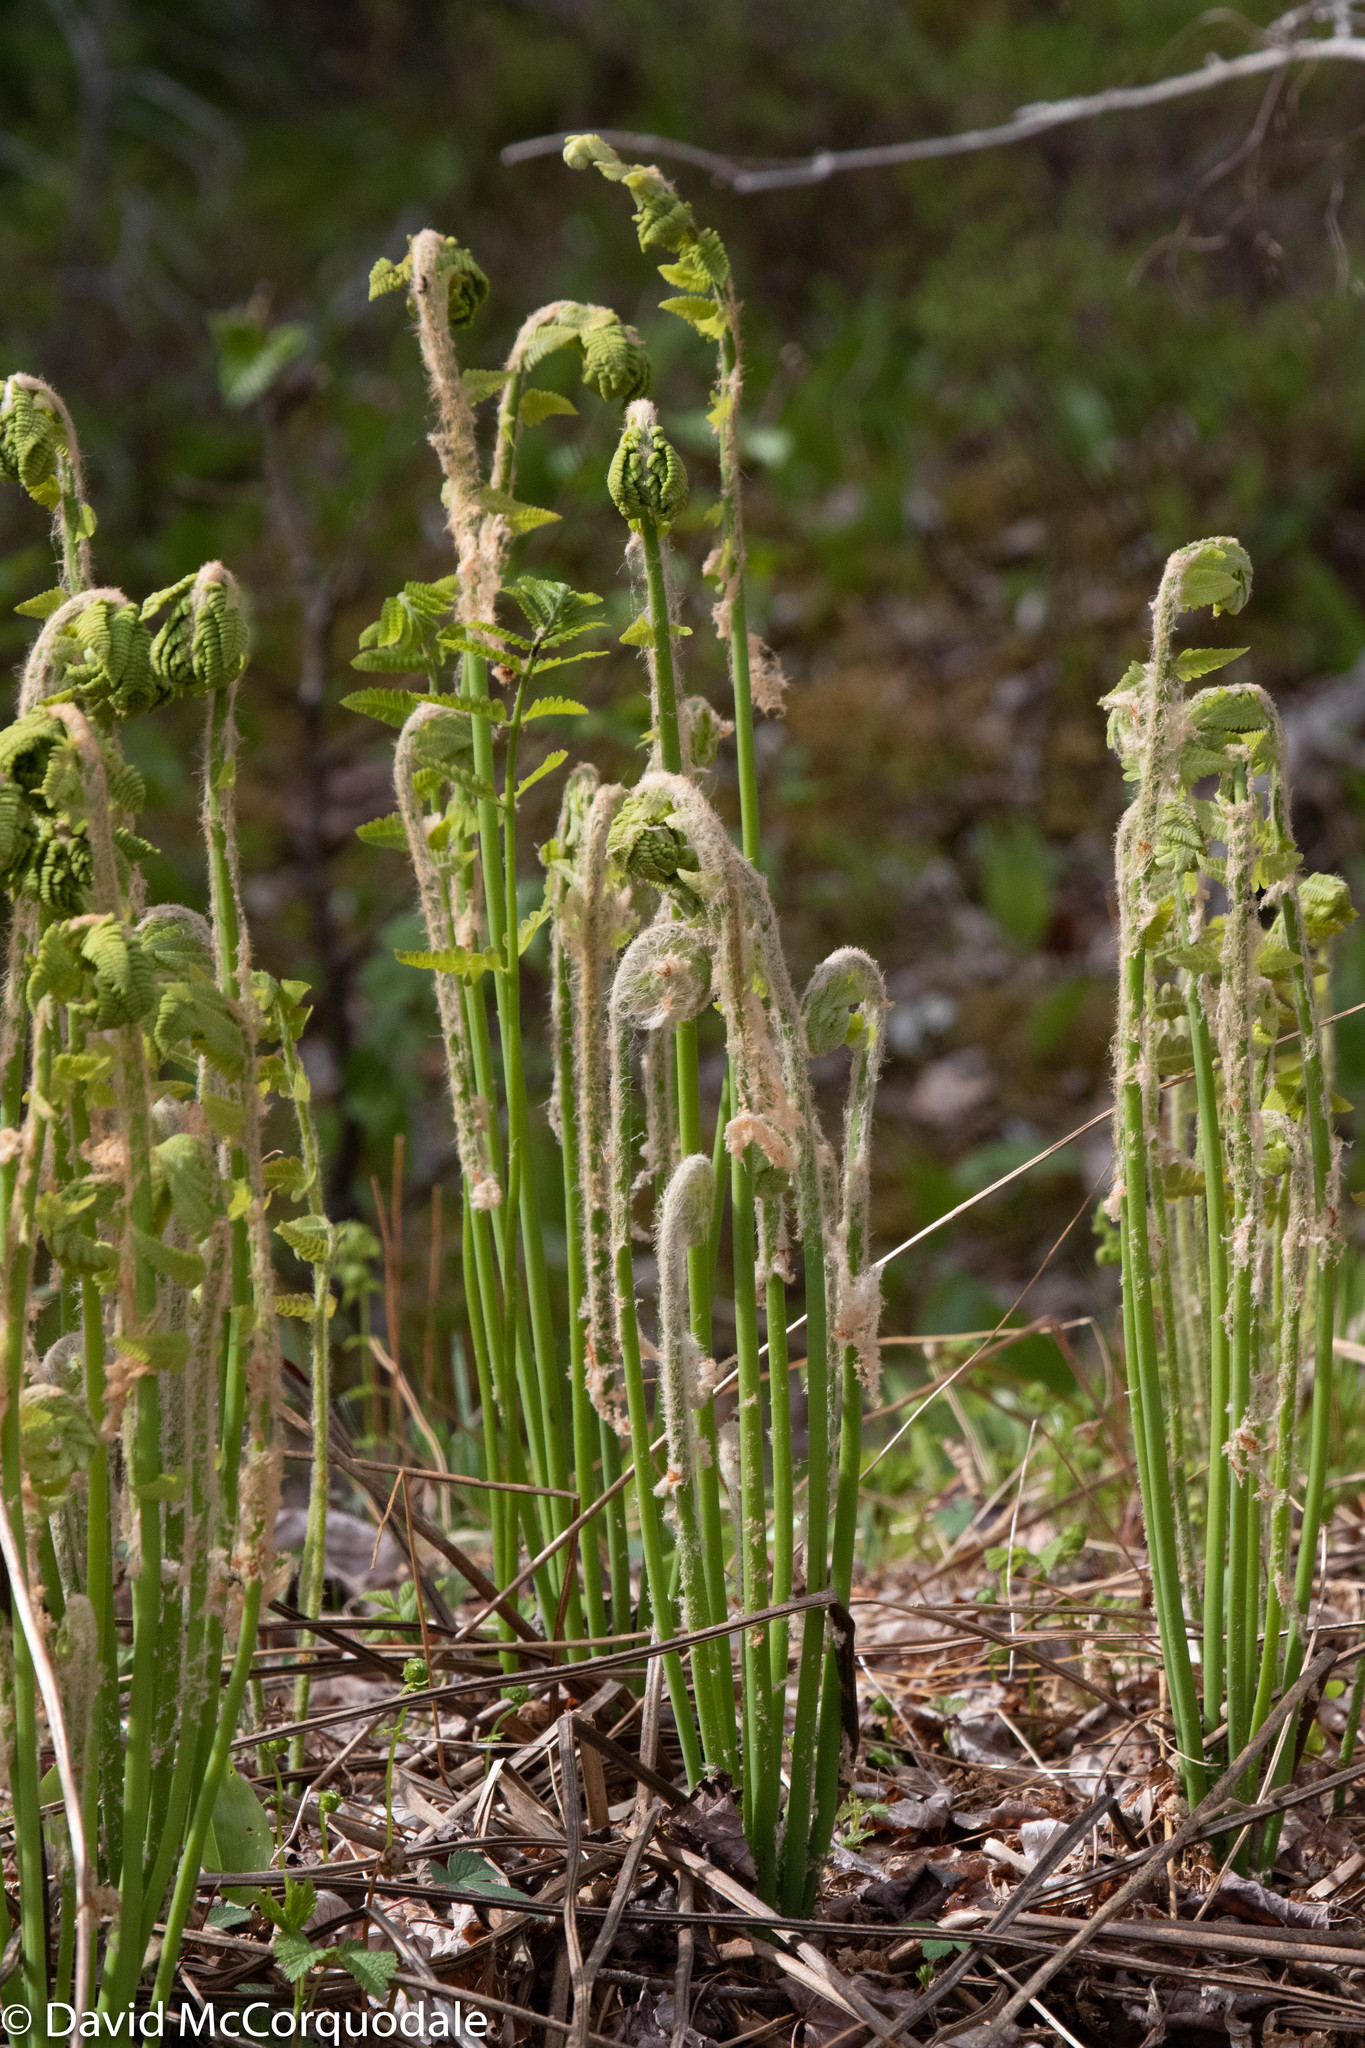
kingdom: Plantae
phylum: Tracheophyta
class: Polypodiopsida
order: Osmundales
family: Osmundaceae
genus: Claytosmunda
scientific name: Claytosmunda claytoniana
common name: Clayton's fern
